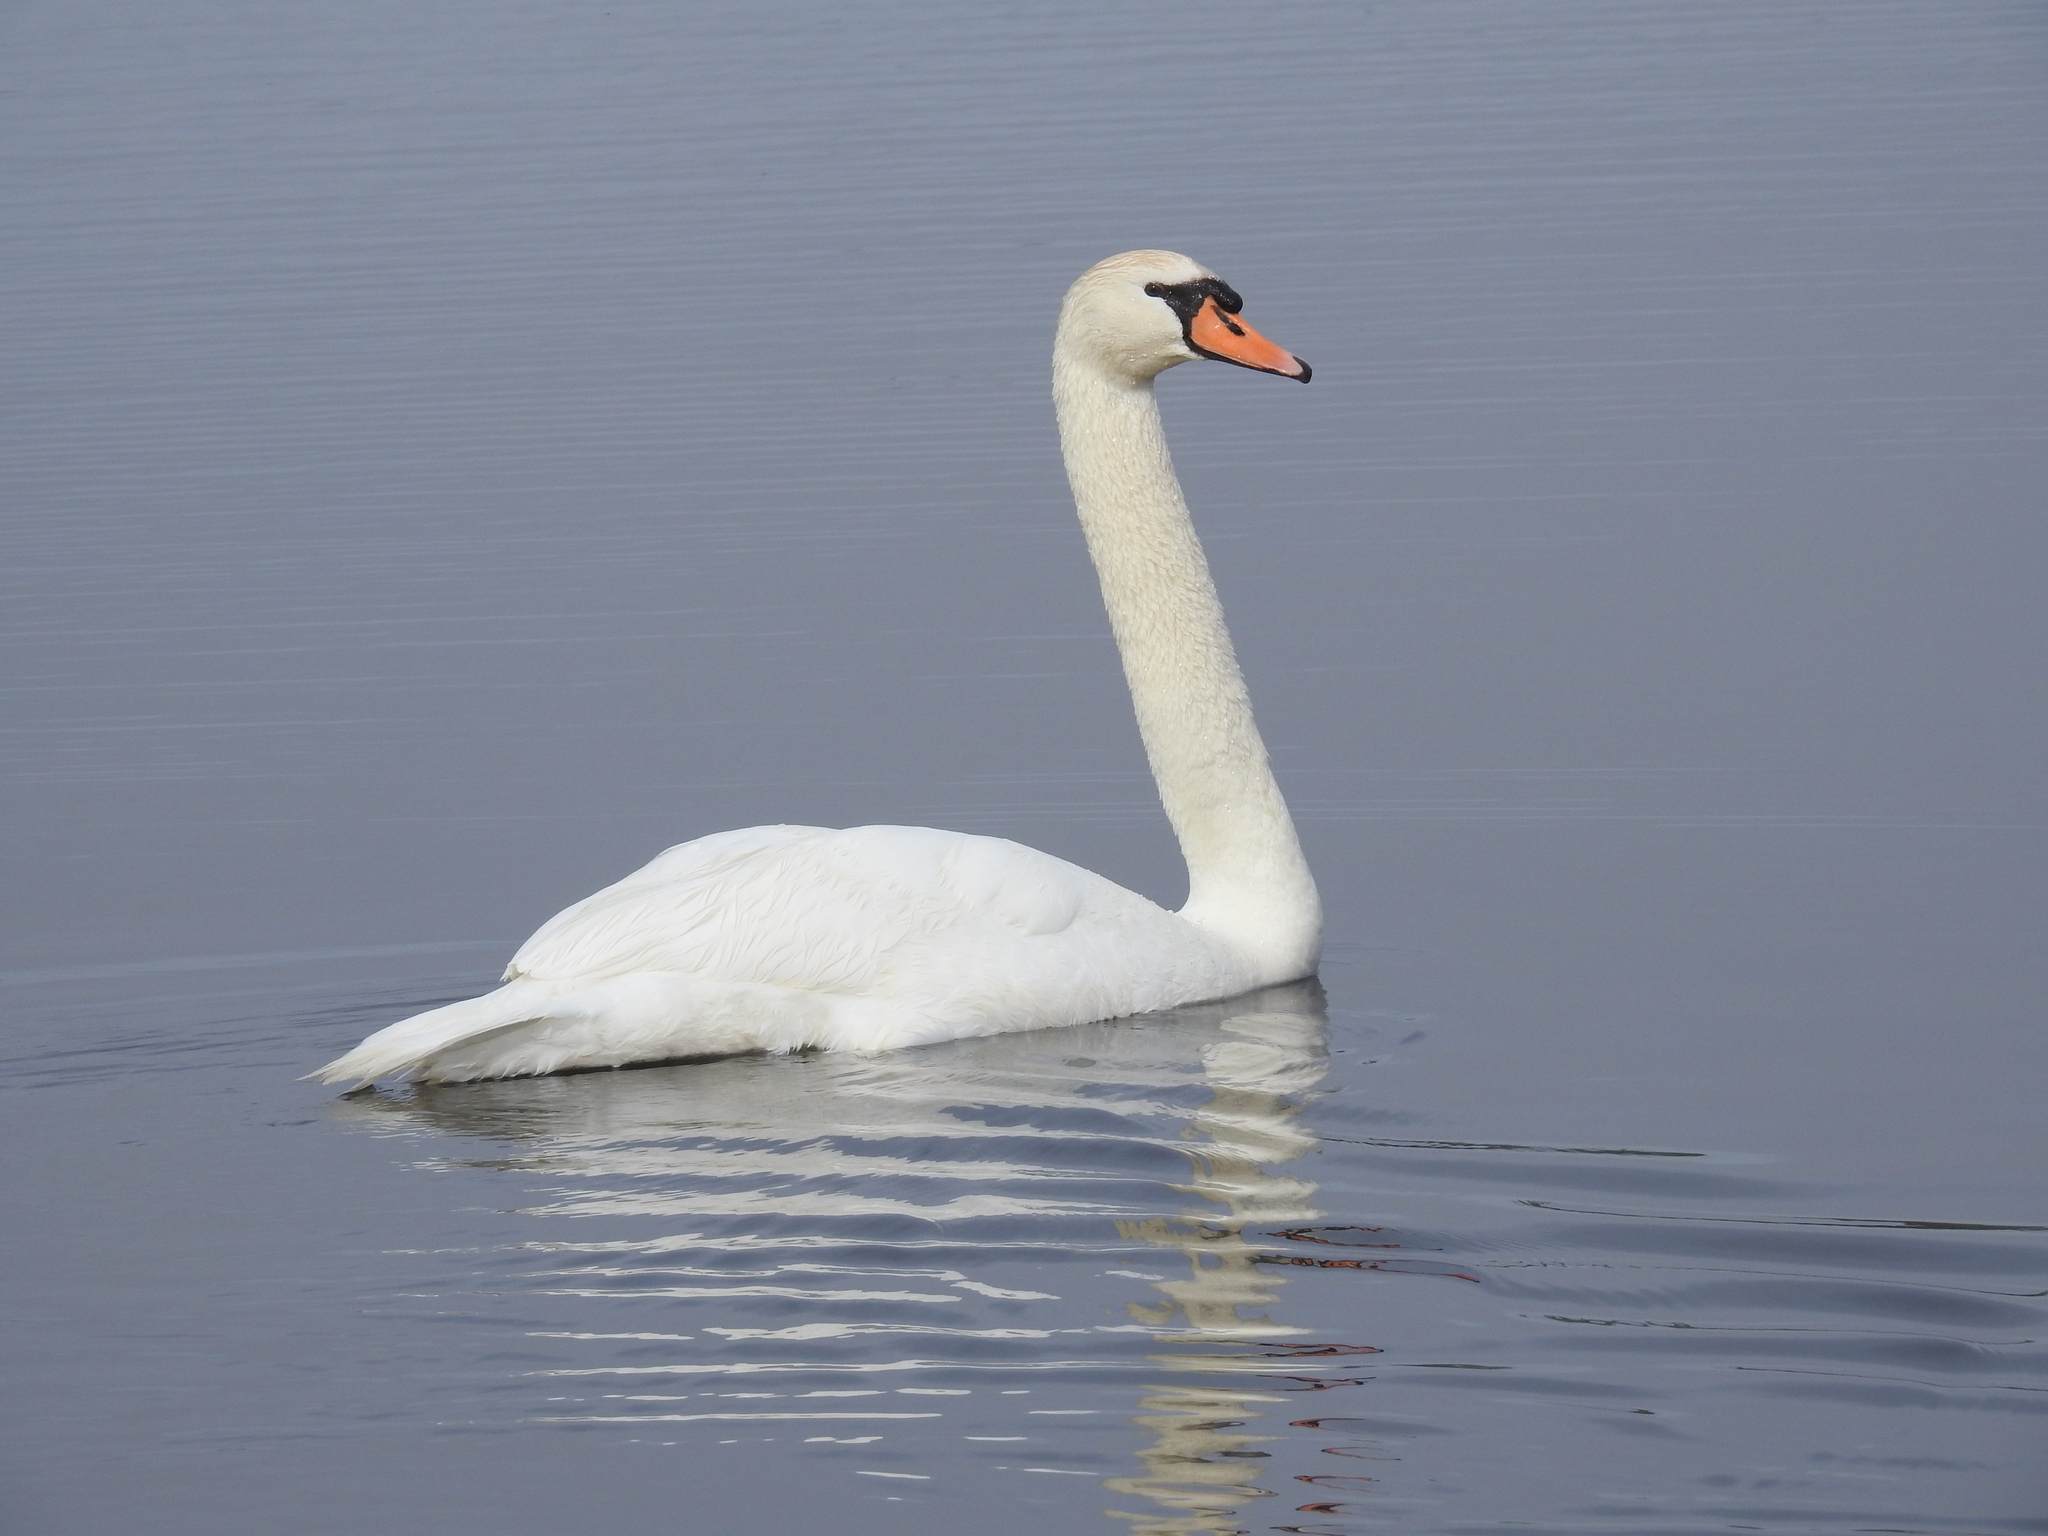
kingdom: Animalia
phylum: Chordata
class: Aves
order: Anseriformes
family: Anatidae
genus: Cygnus
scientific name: Cygnus olor
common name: Mute swan
